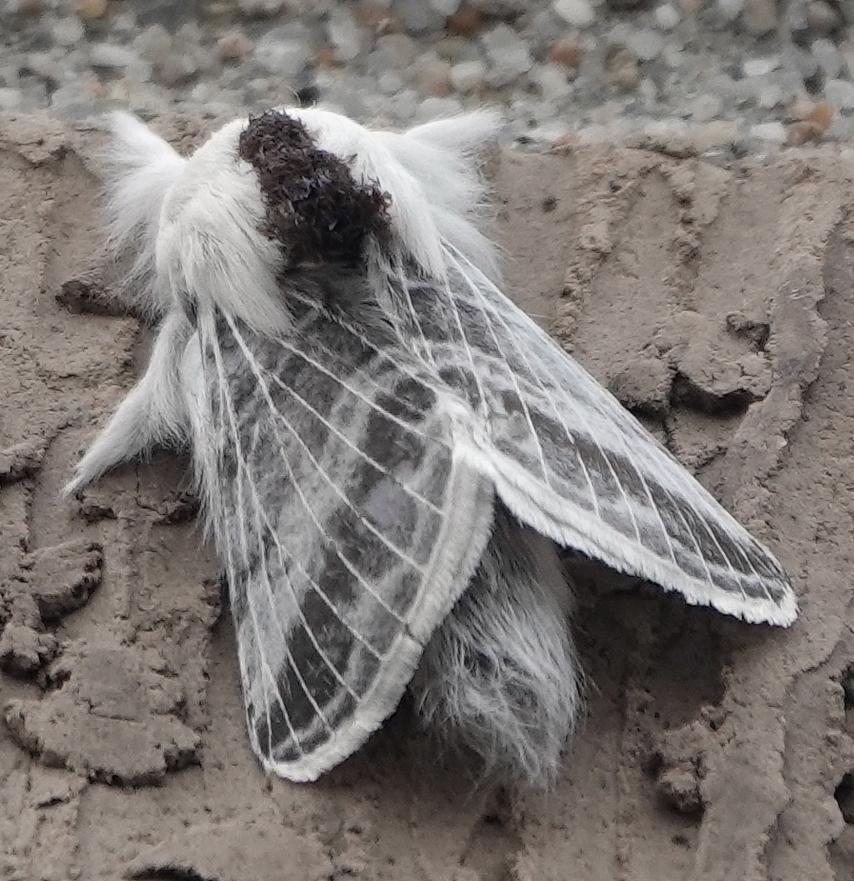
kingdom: Animalia
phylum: Arthropoda
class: Insecta
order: Lepidoptera
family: Lasiocampidae
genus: Tolype
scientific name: Tolype velleda
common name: Large tolype moth
